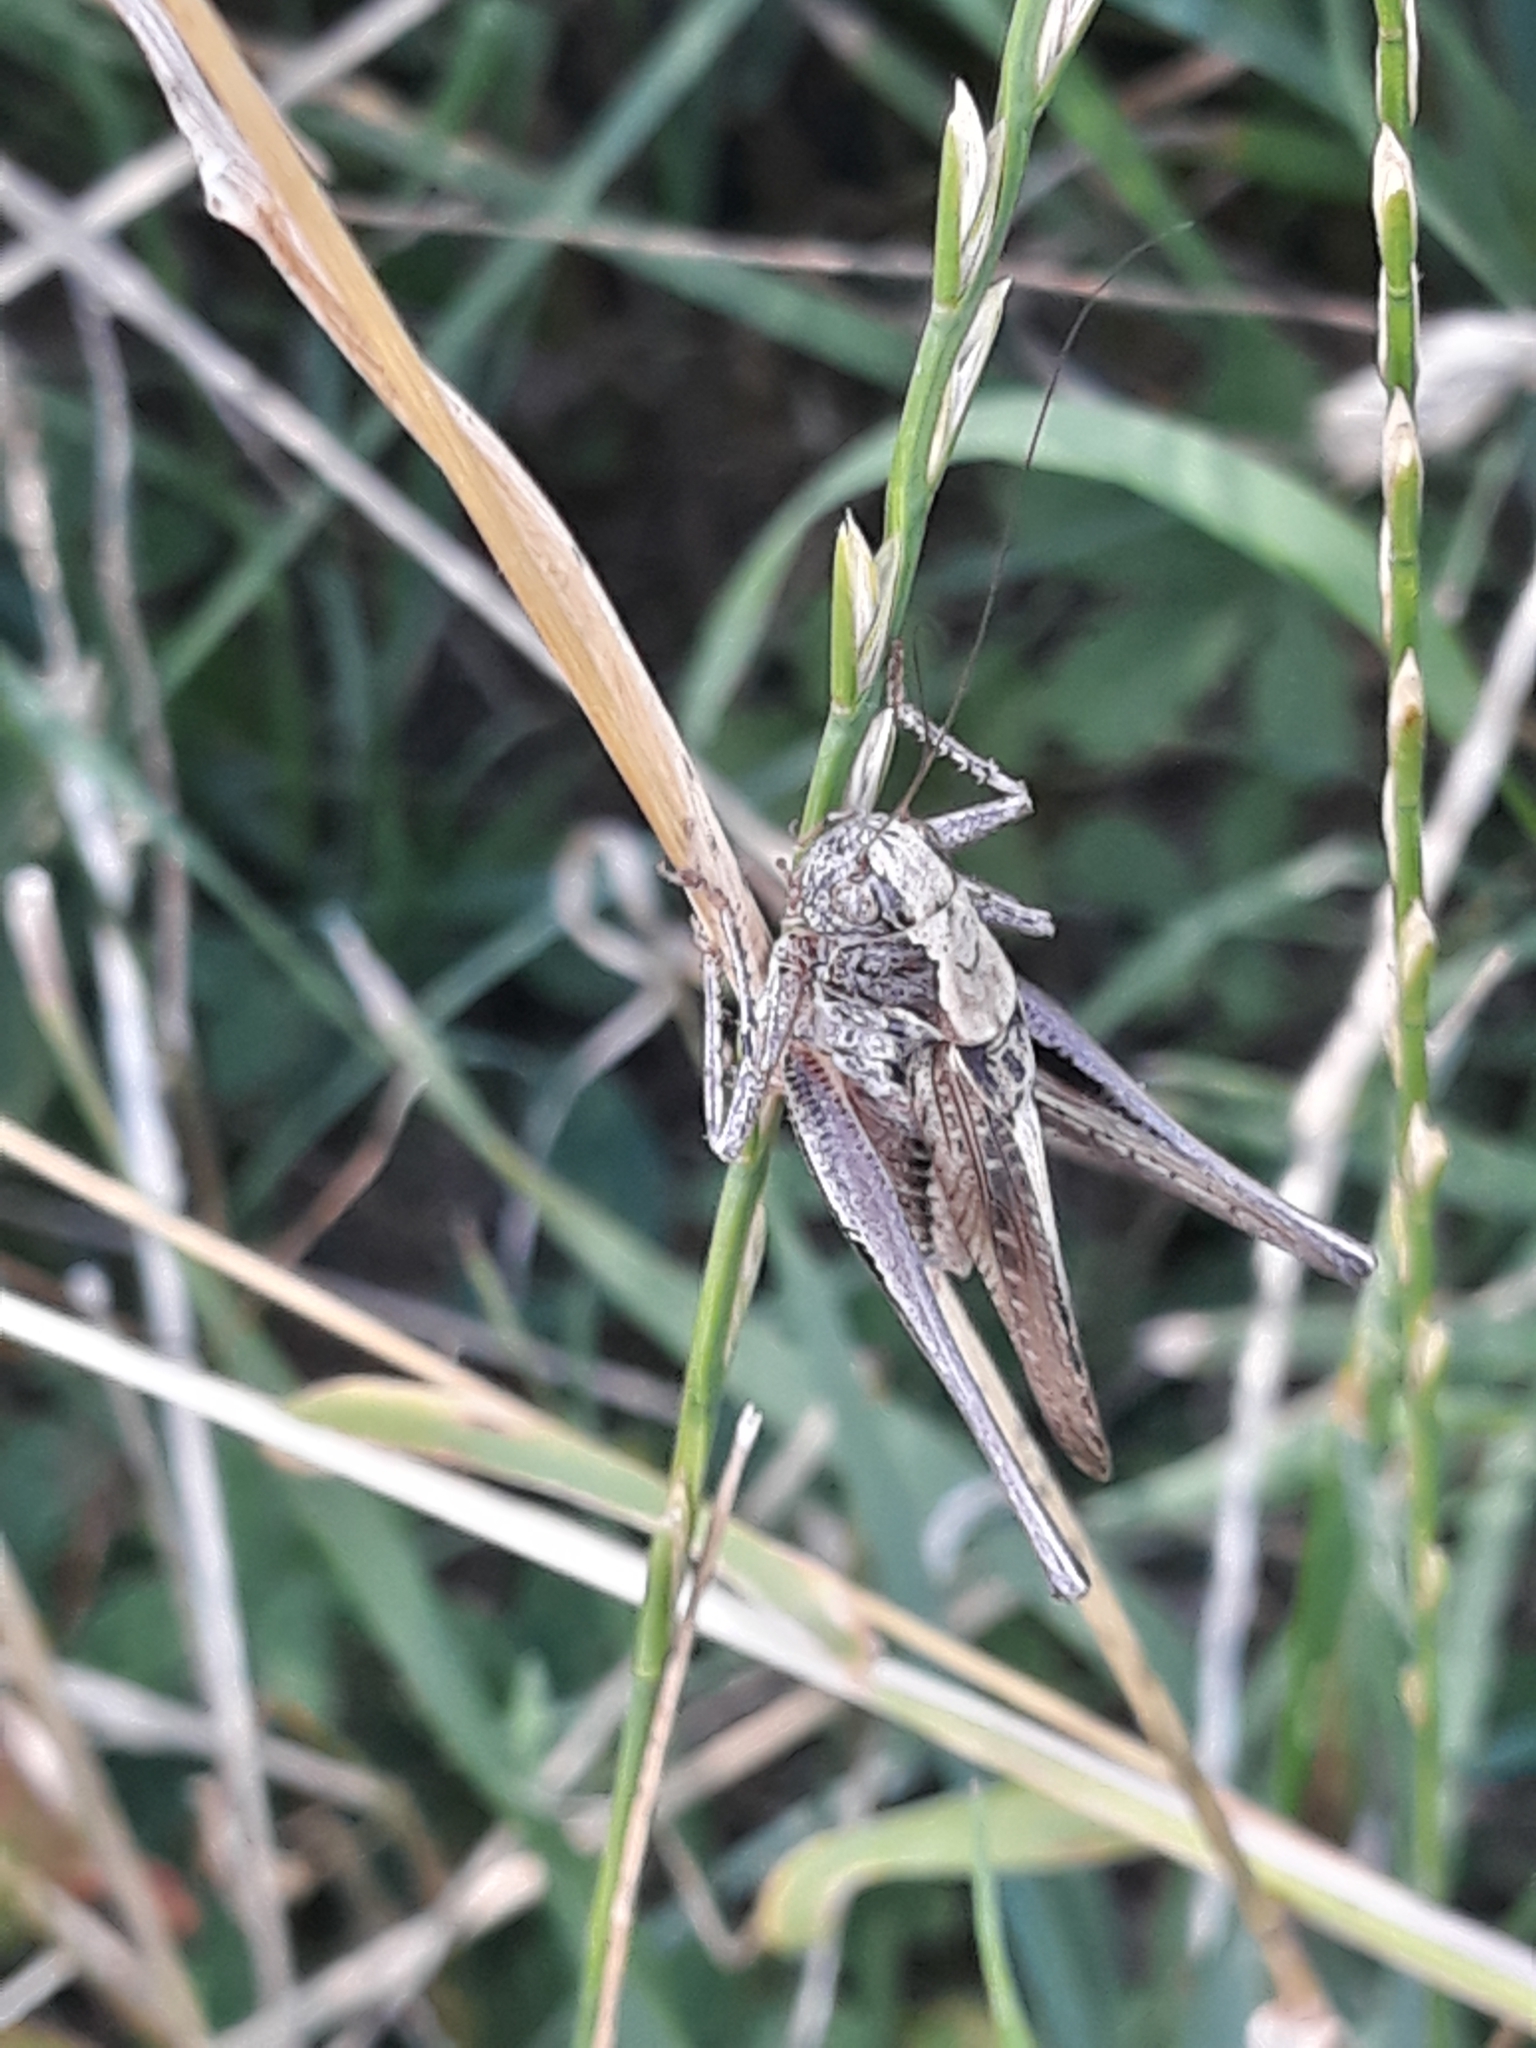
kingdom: Animalia
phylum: Arthropoda
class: Insecta
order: Orthoptera
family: Tettigoniidae
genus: Platycleis
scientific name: Platycleis albopunctata
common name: Grey bush-cricket
